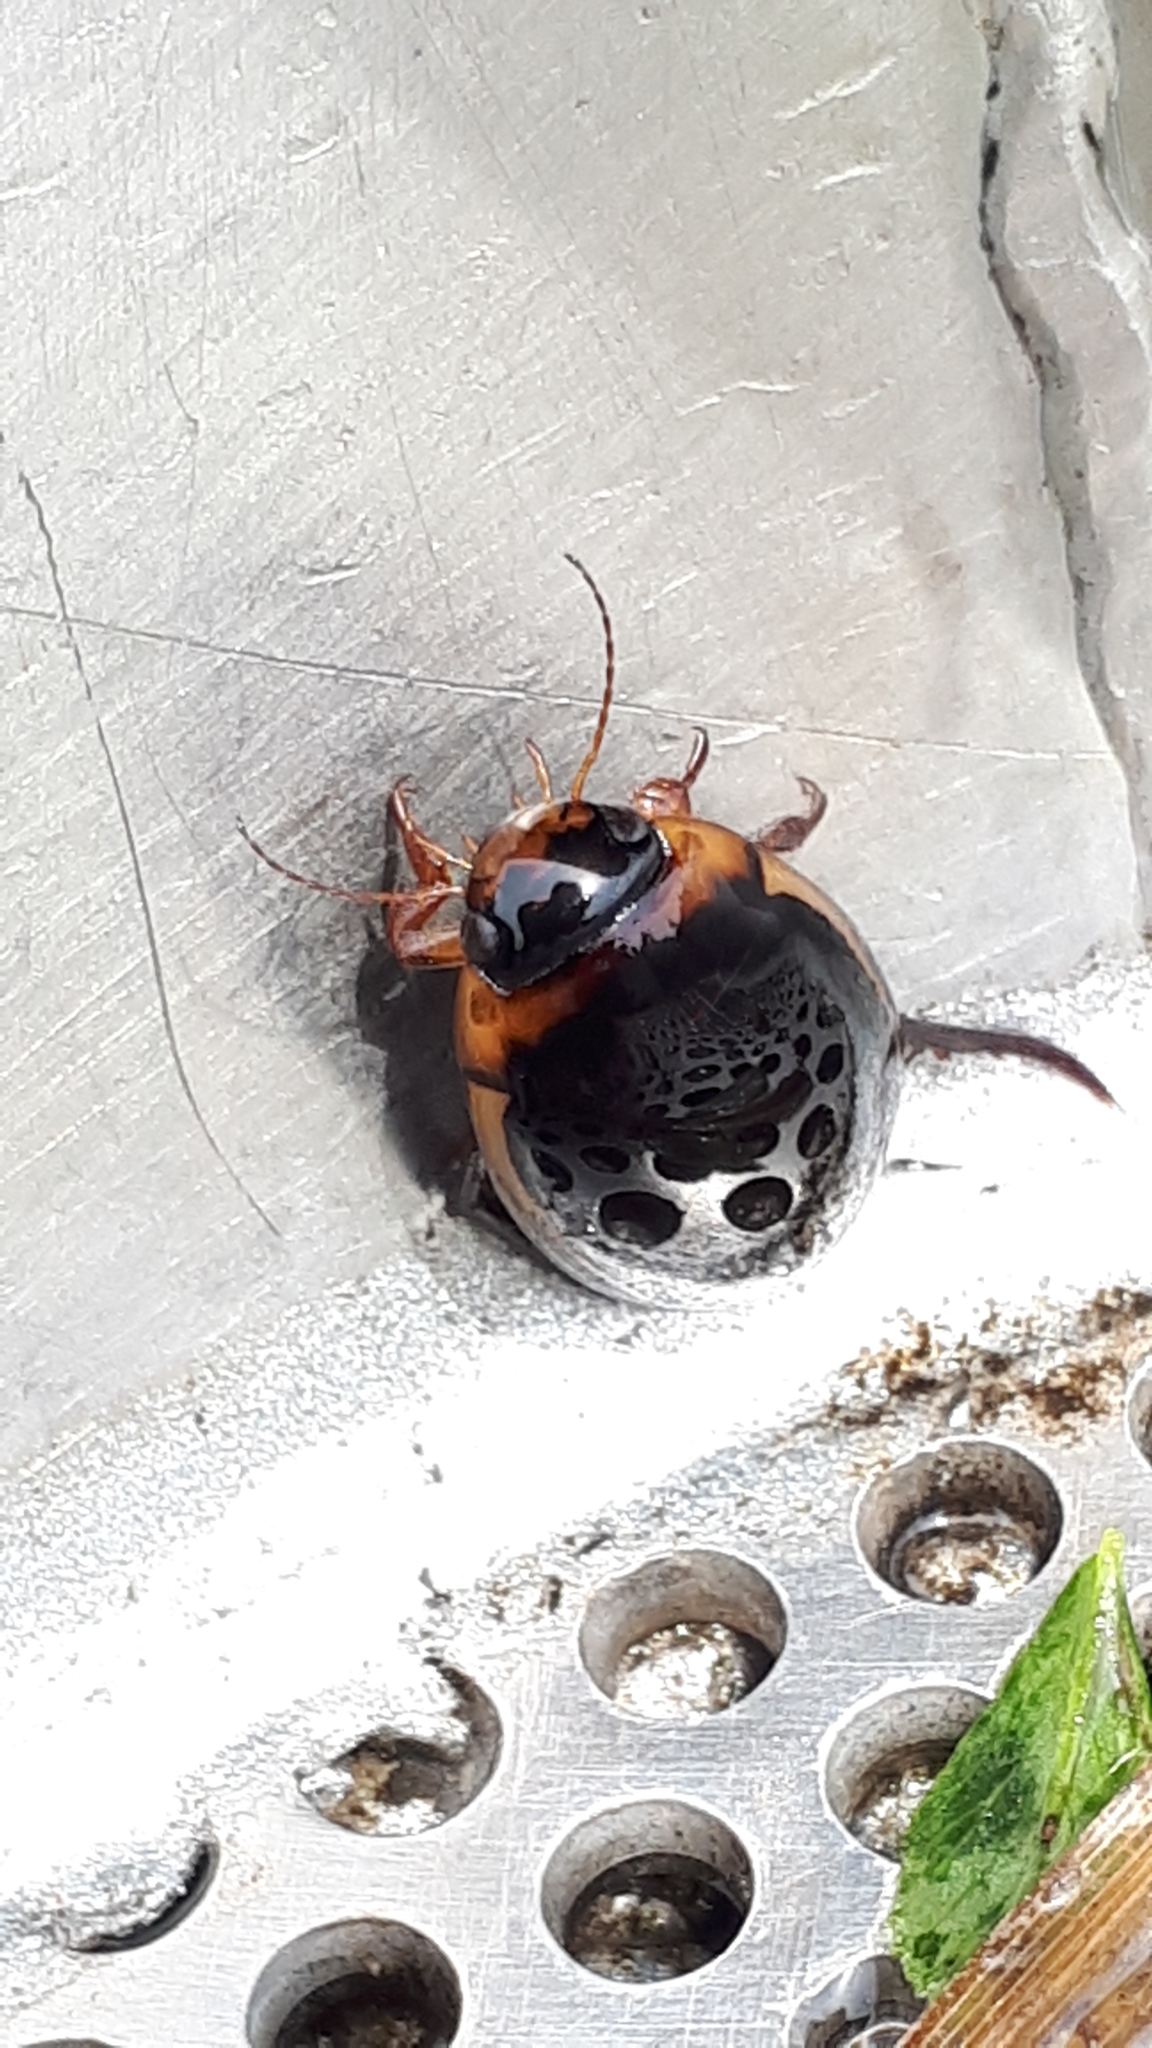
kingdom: Animalia
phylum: Arthropoda
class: Insecta
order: Coleoptera
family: Dytiscidae
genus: Hydaticus
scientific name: Hydaticus seminiger
